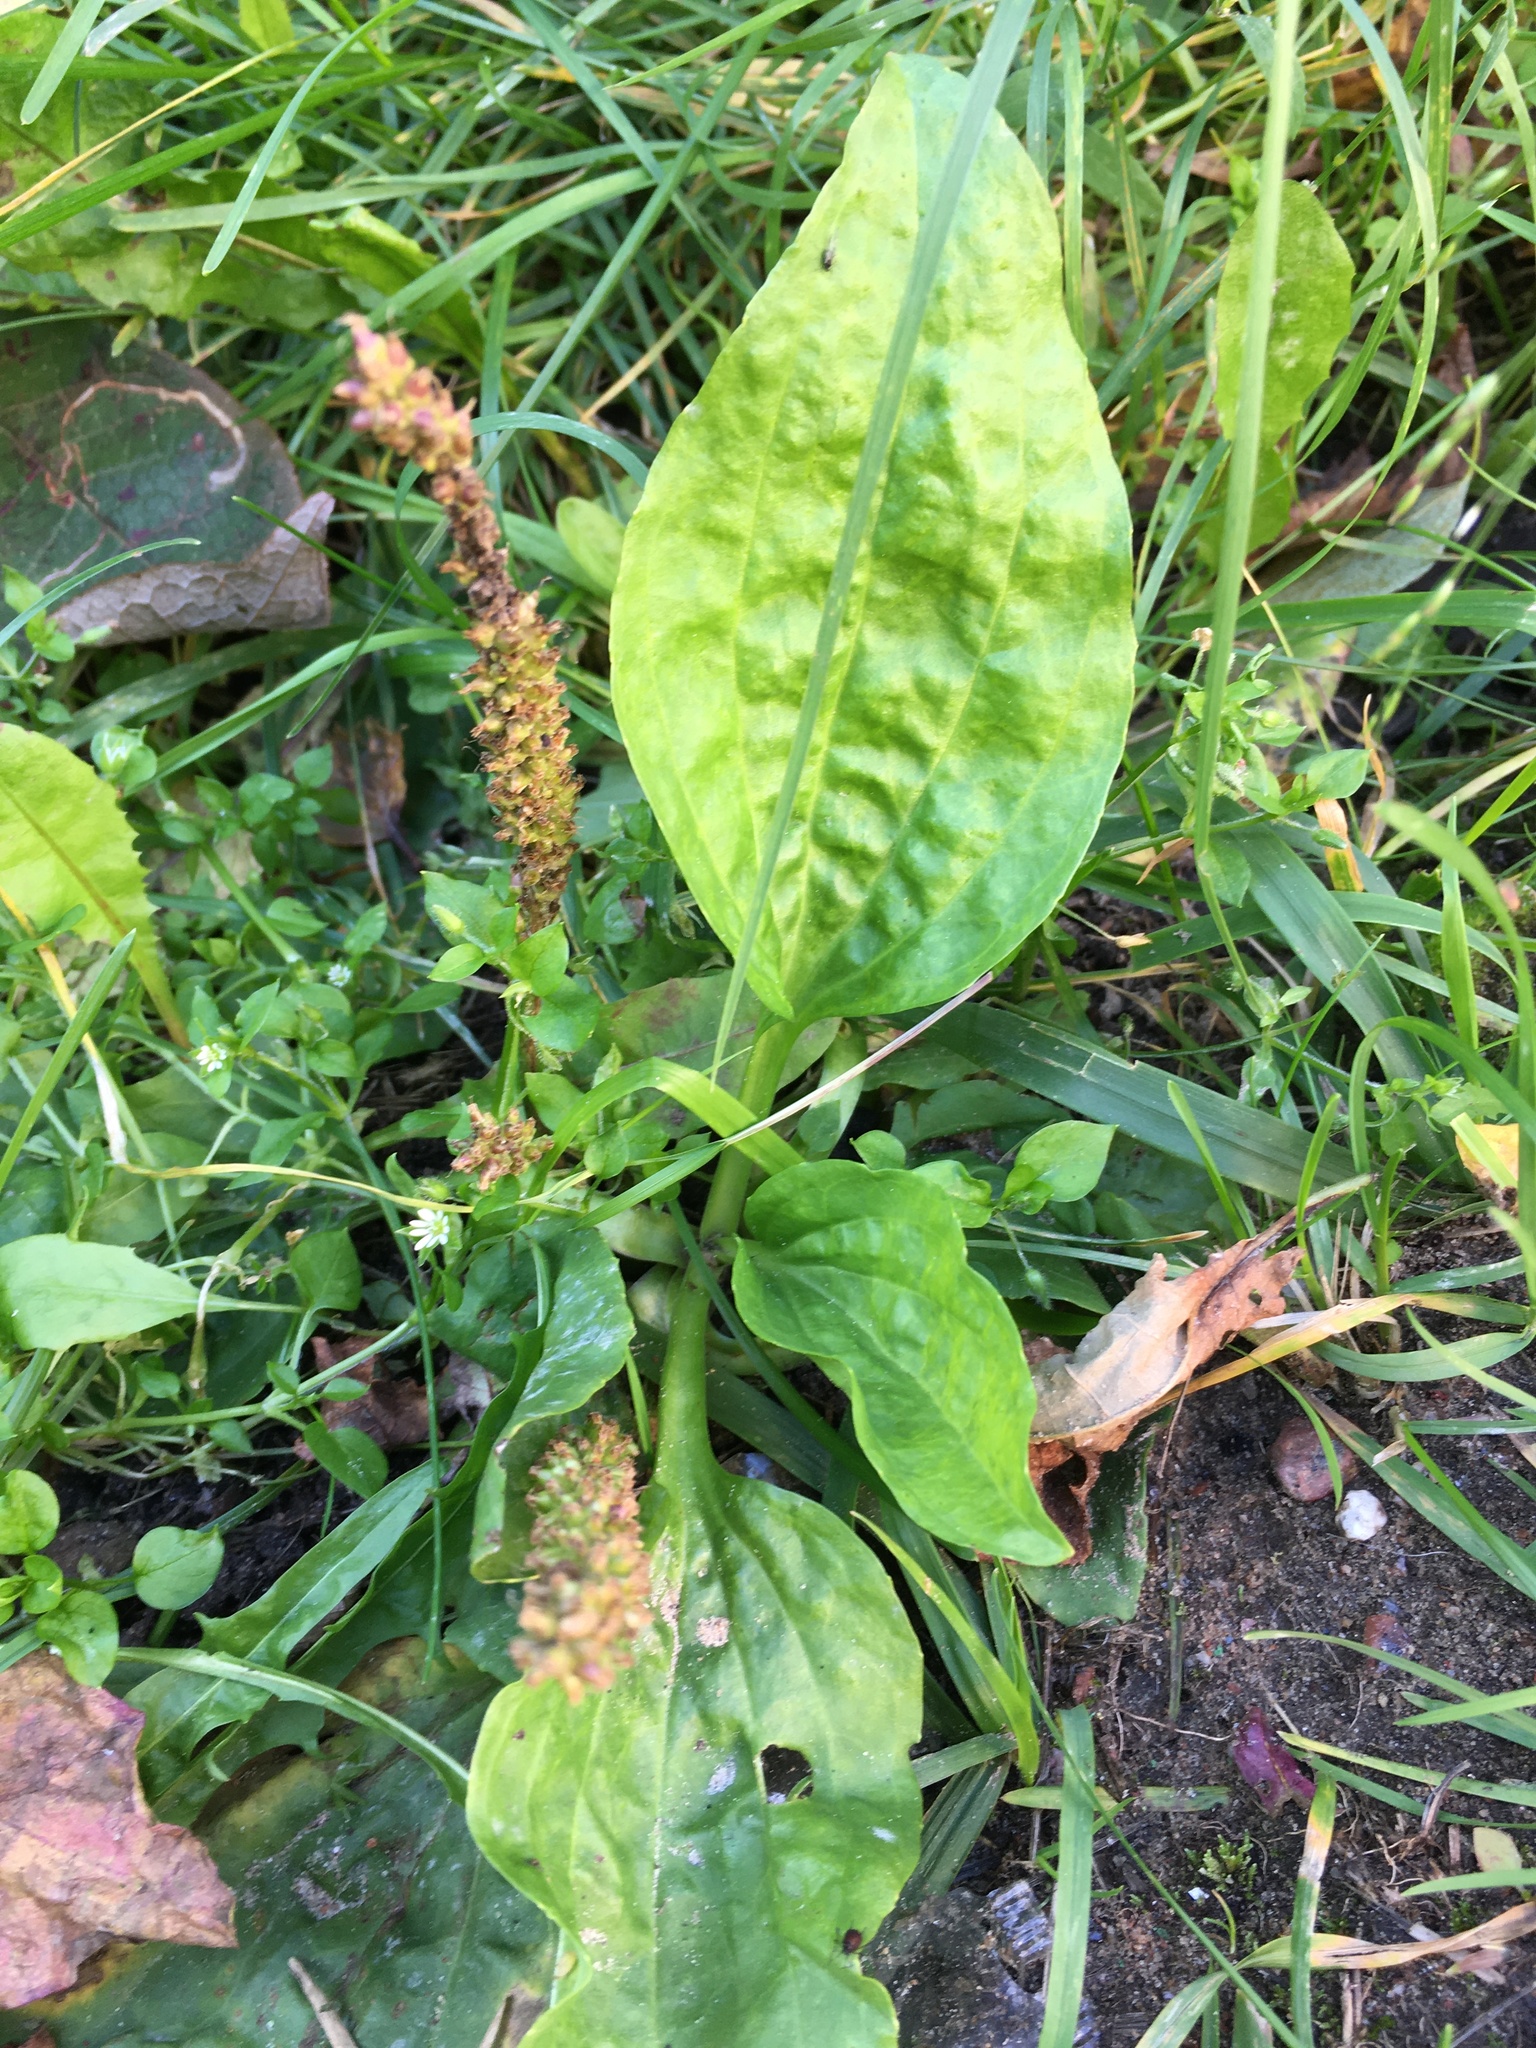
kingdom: Plantae
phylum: Tracheophyta
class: Magnoliopsida
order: Lamiales
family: Plantaginaceae
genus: Plantago
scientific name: Plantago major
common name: Common plantain
